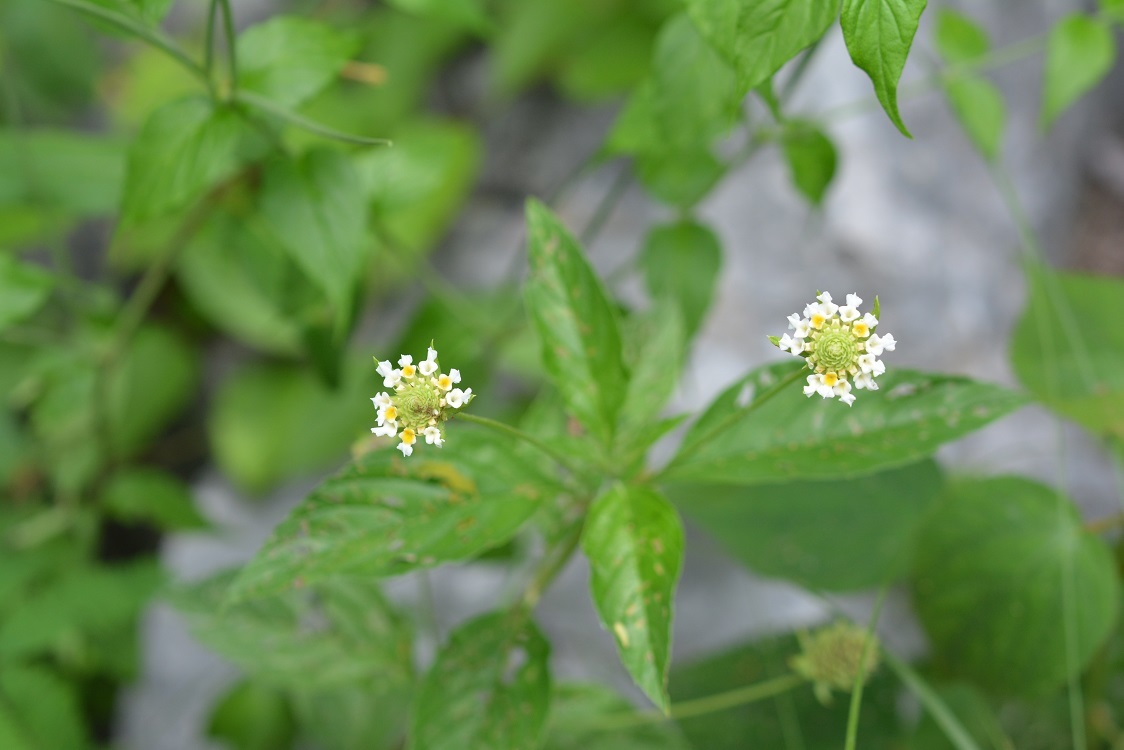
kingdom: Plantae
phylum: Tracheophyta
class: Magnoliopsida
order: Lamiales
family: Verbenaceae
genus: Lippia
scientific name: Lippia dulcis
